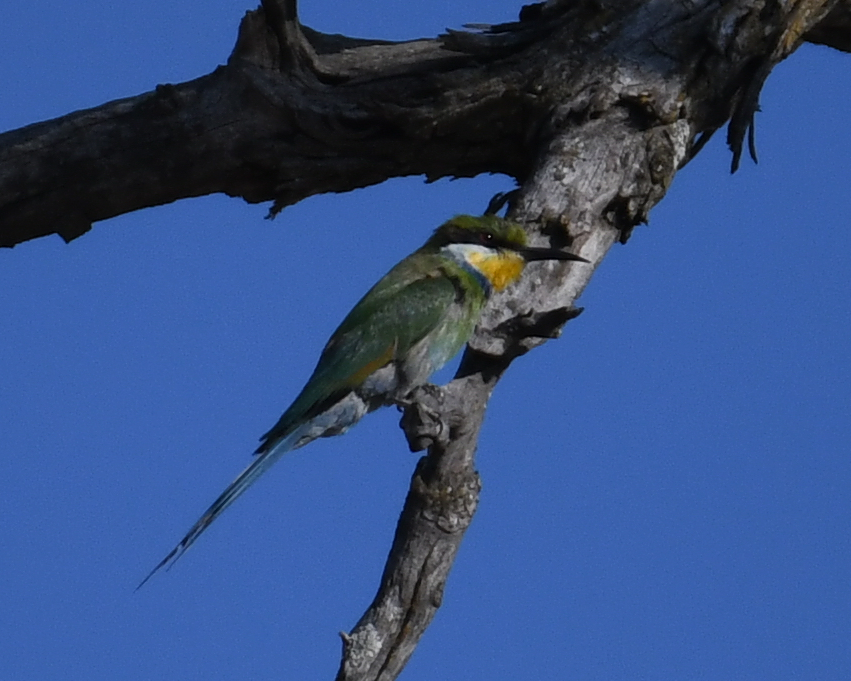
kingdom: Animalia
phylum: Chordata
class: Aves
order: Coraciiformes
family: Meropidae
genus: Merops
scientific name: Merops hirundineus
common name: Swallow-tailed bee-eater
